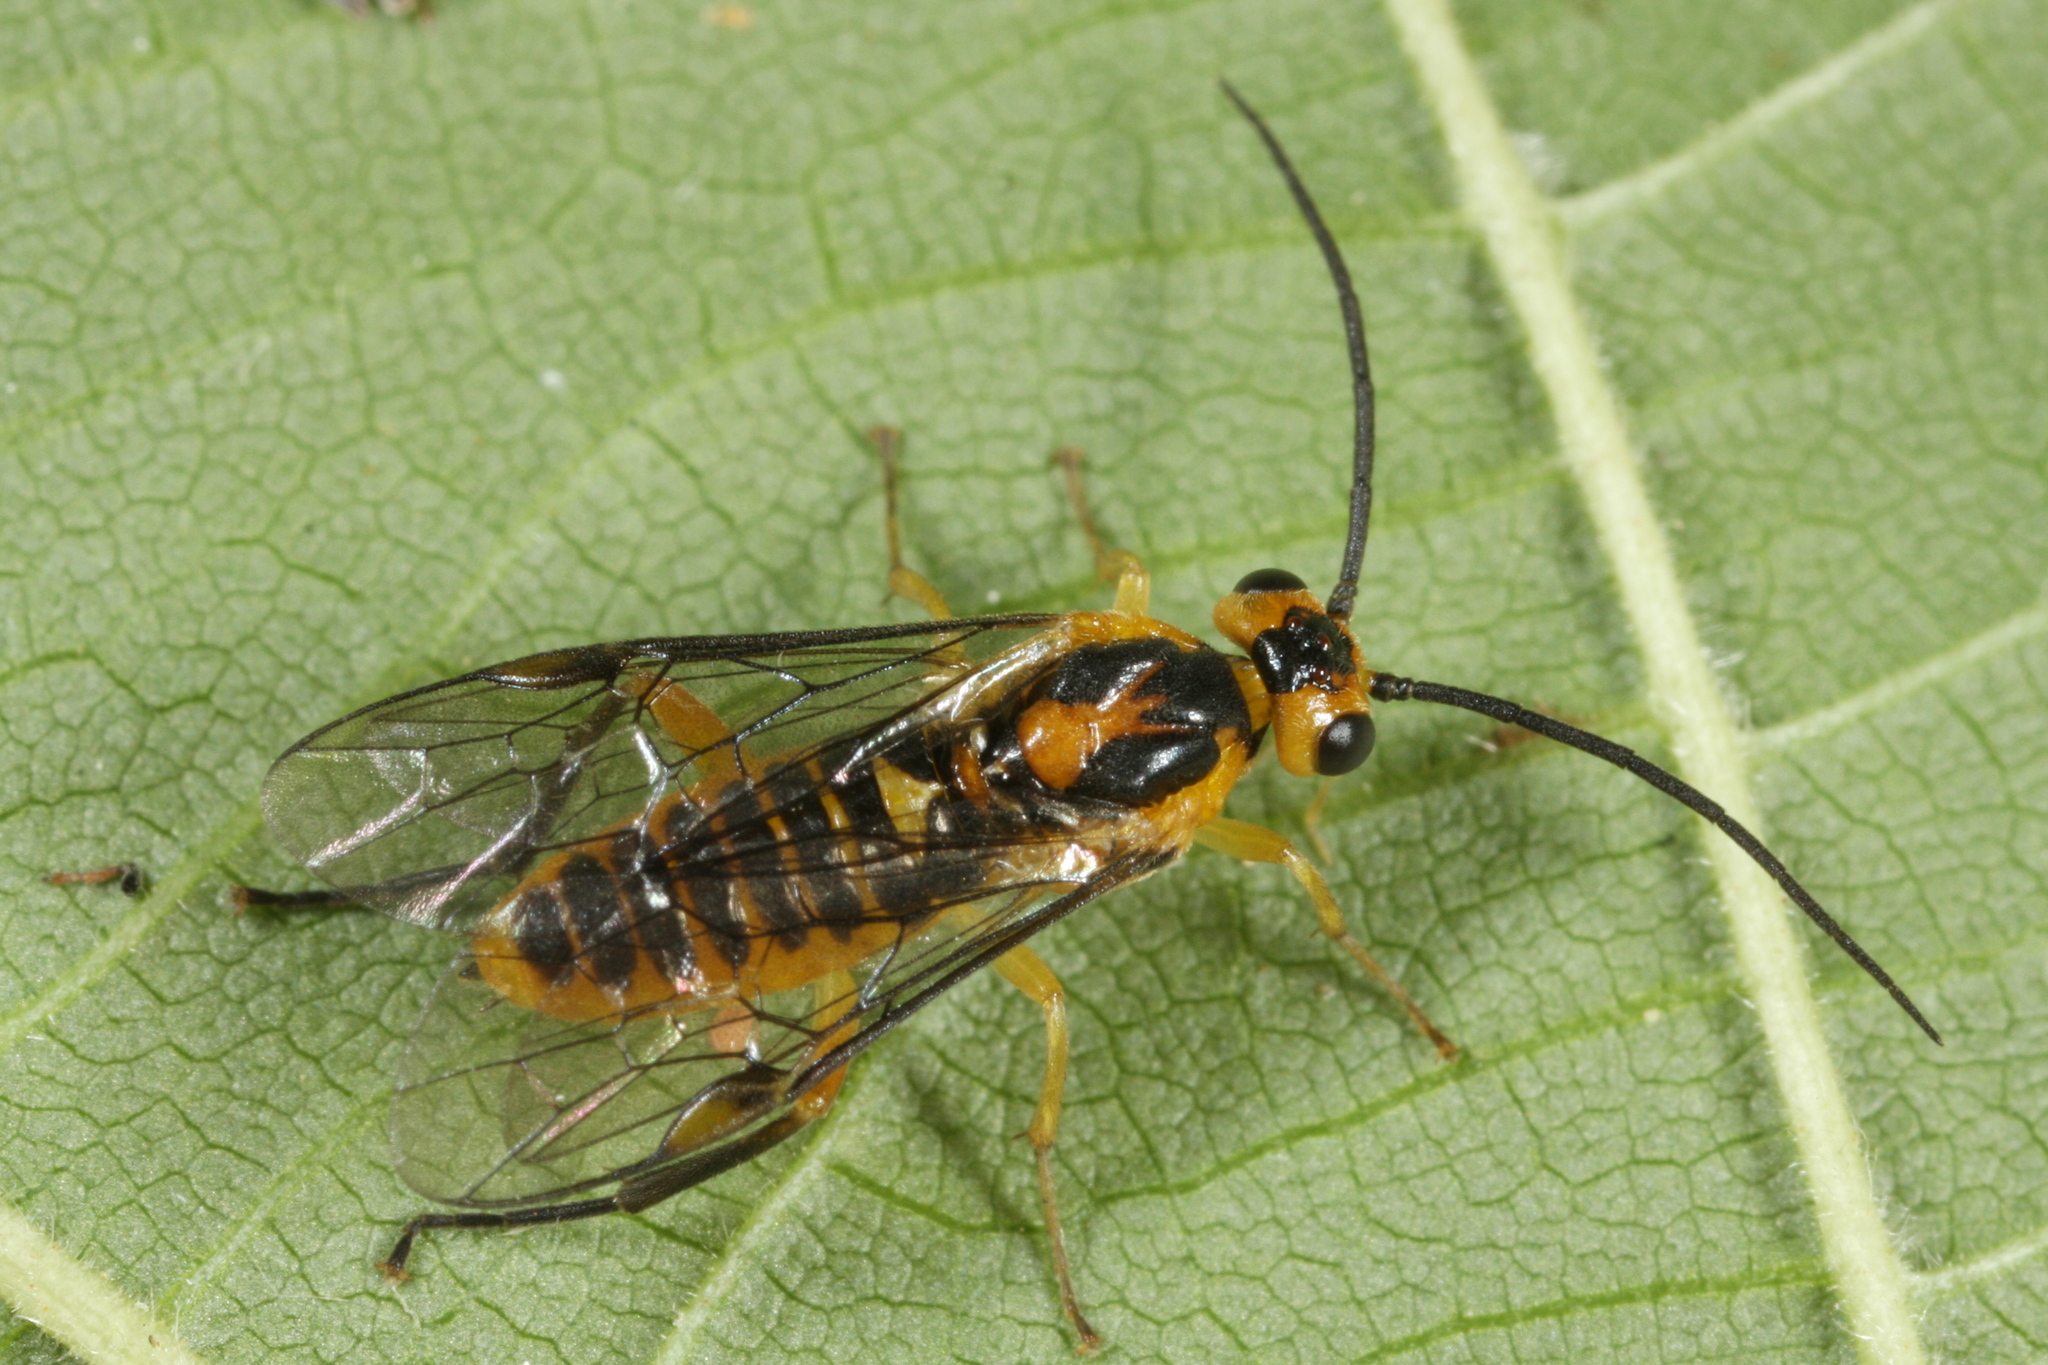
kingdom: Animalia
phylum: Arthropoda
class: Insecta
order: Hymenoptera
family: Tenthredinidae
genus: Euura
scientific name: Euura tibialis
